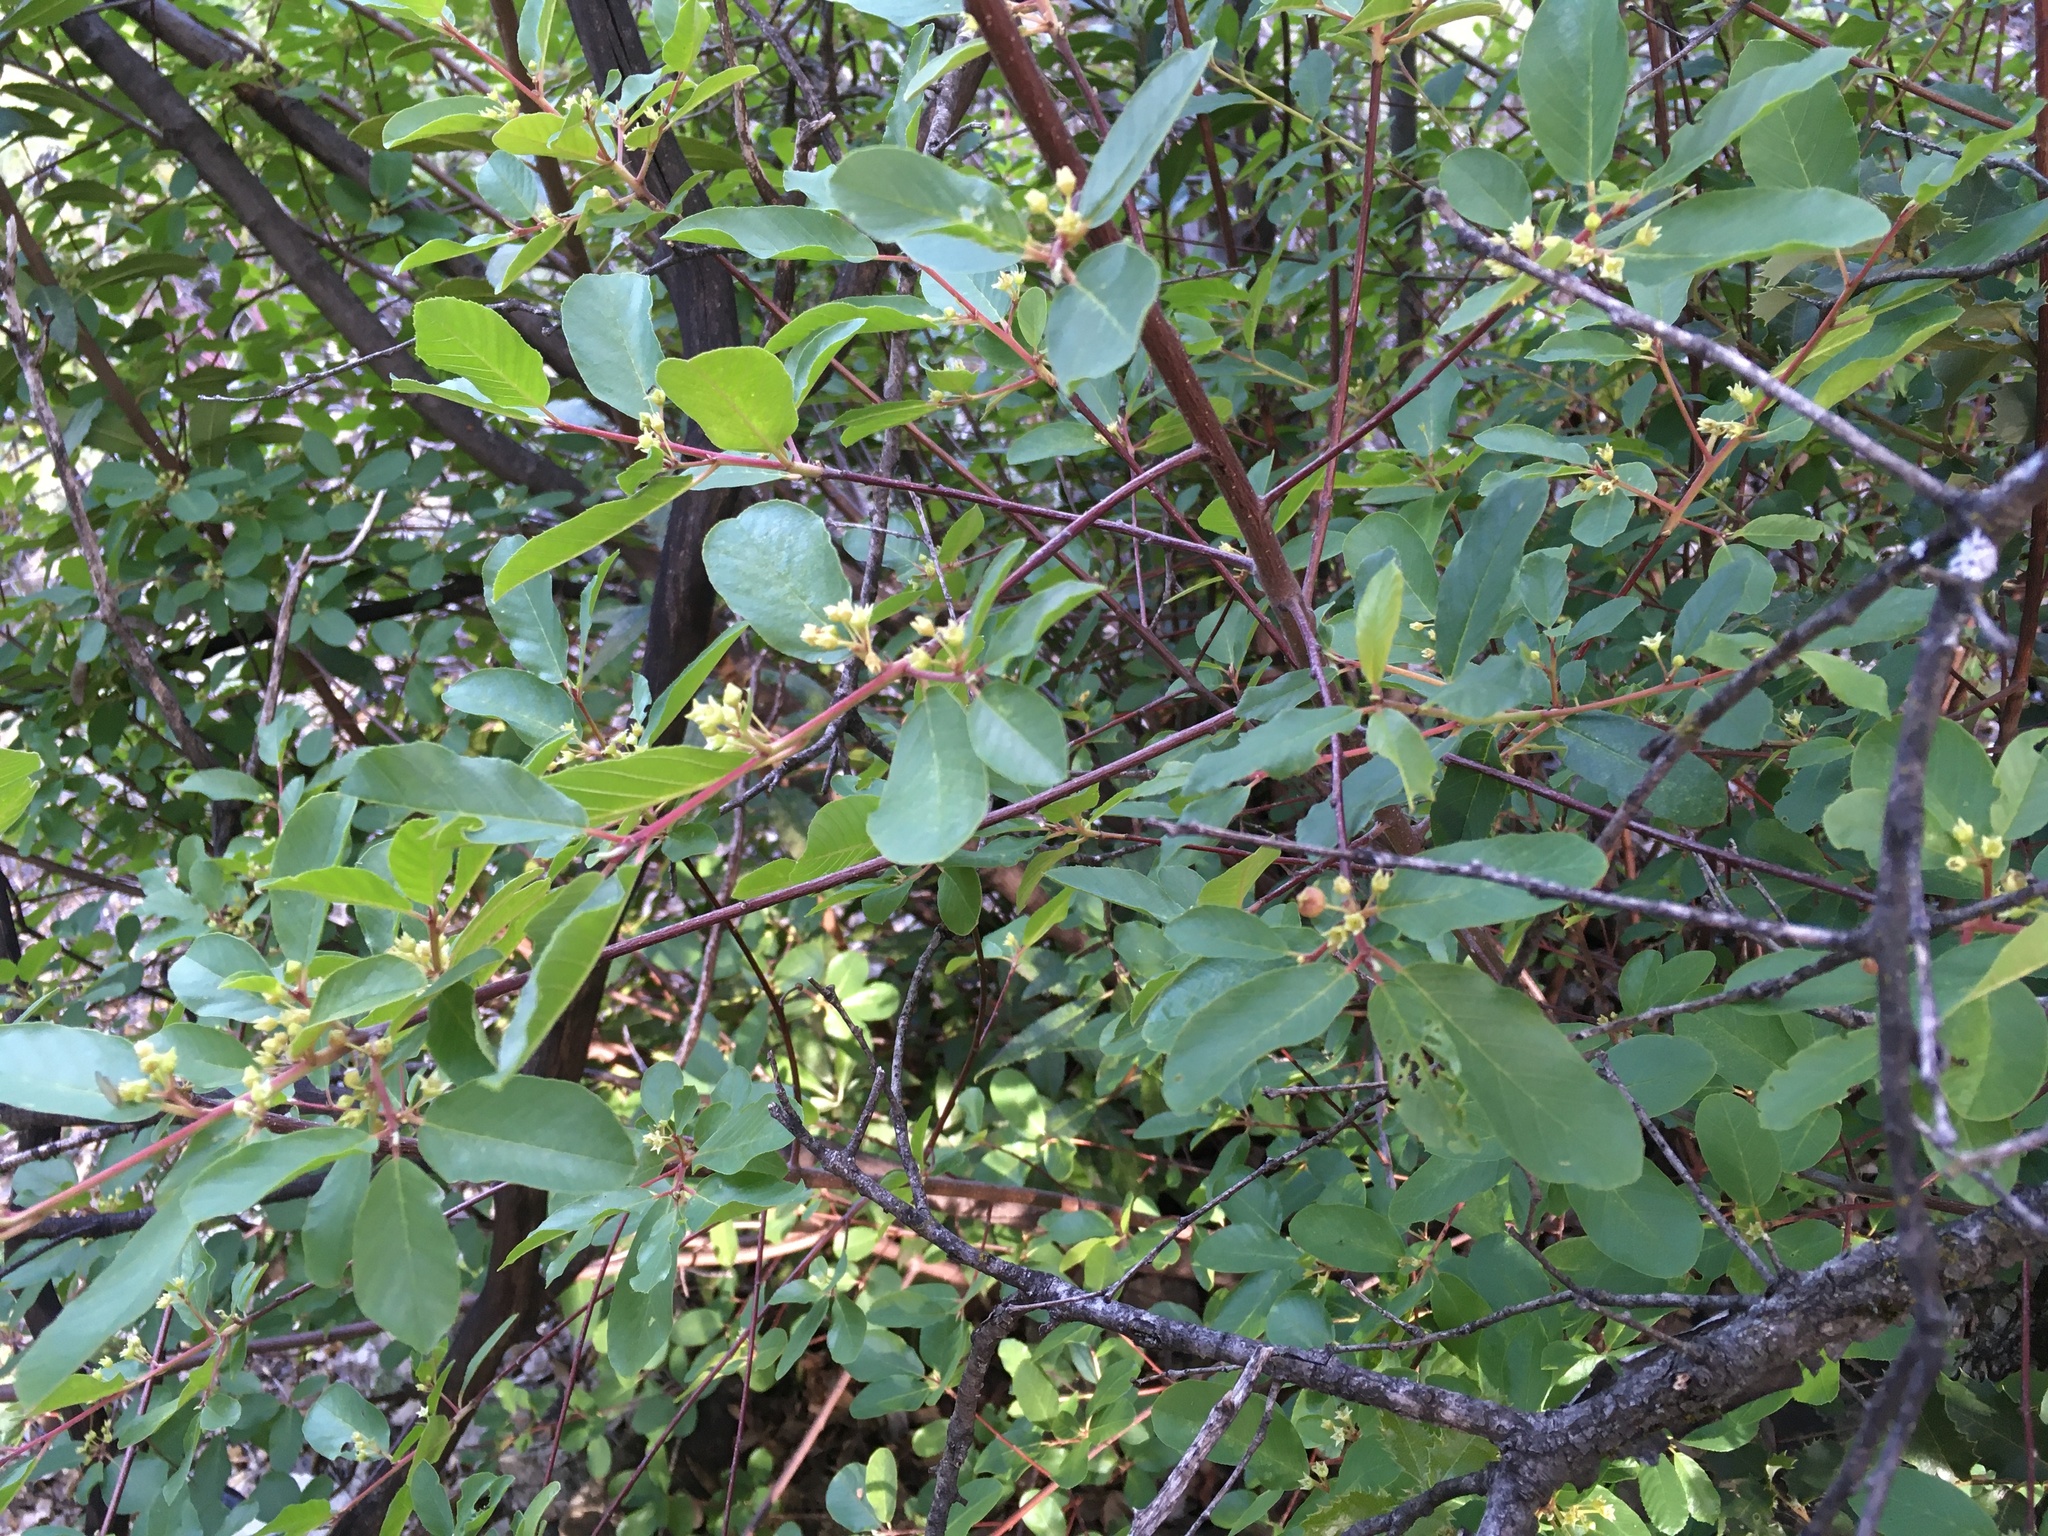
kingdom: Plantae
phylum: Tracheophyta
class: Magnoliopsida
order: Rosales
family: Rhamnaceae
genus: Frangula
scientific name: Frangula rubra
